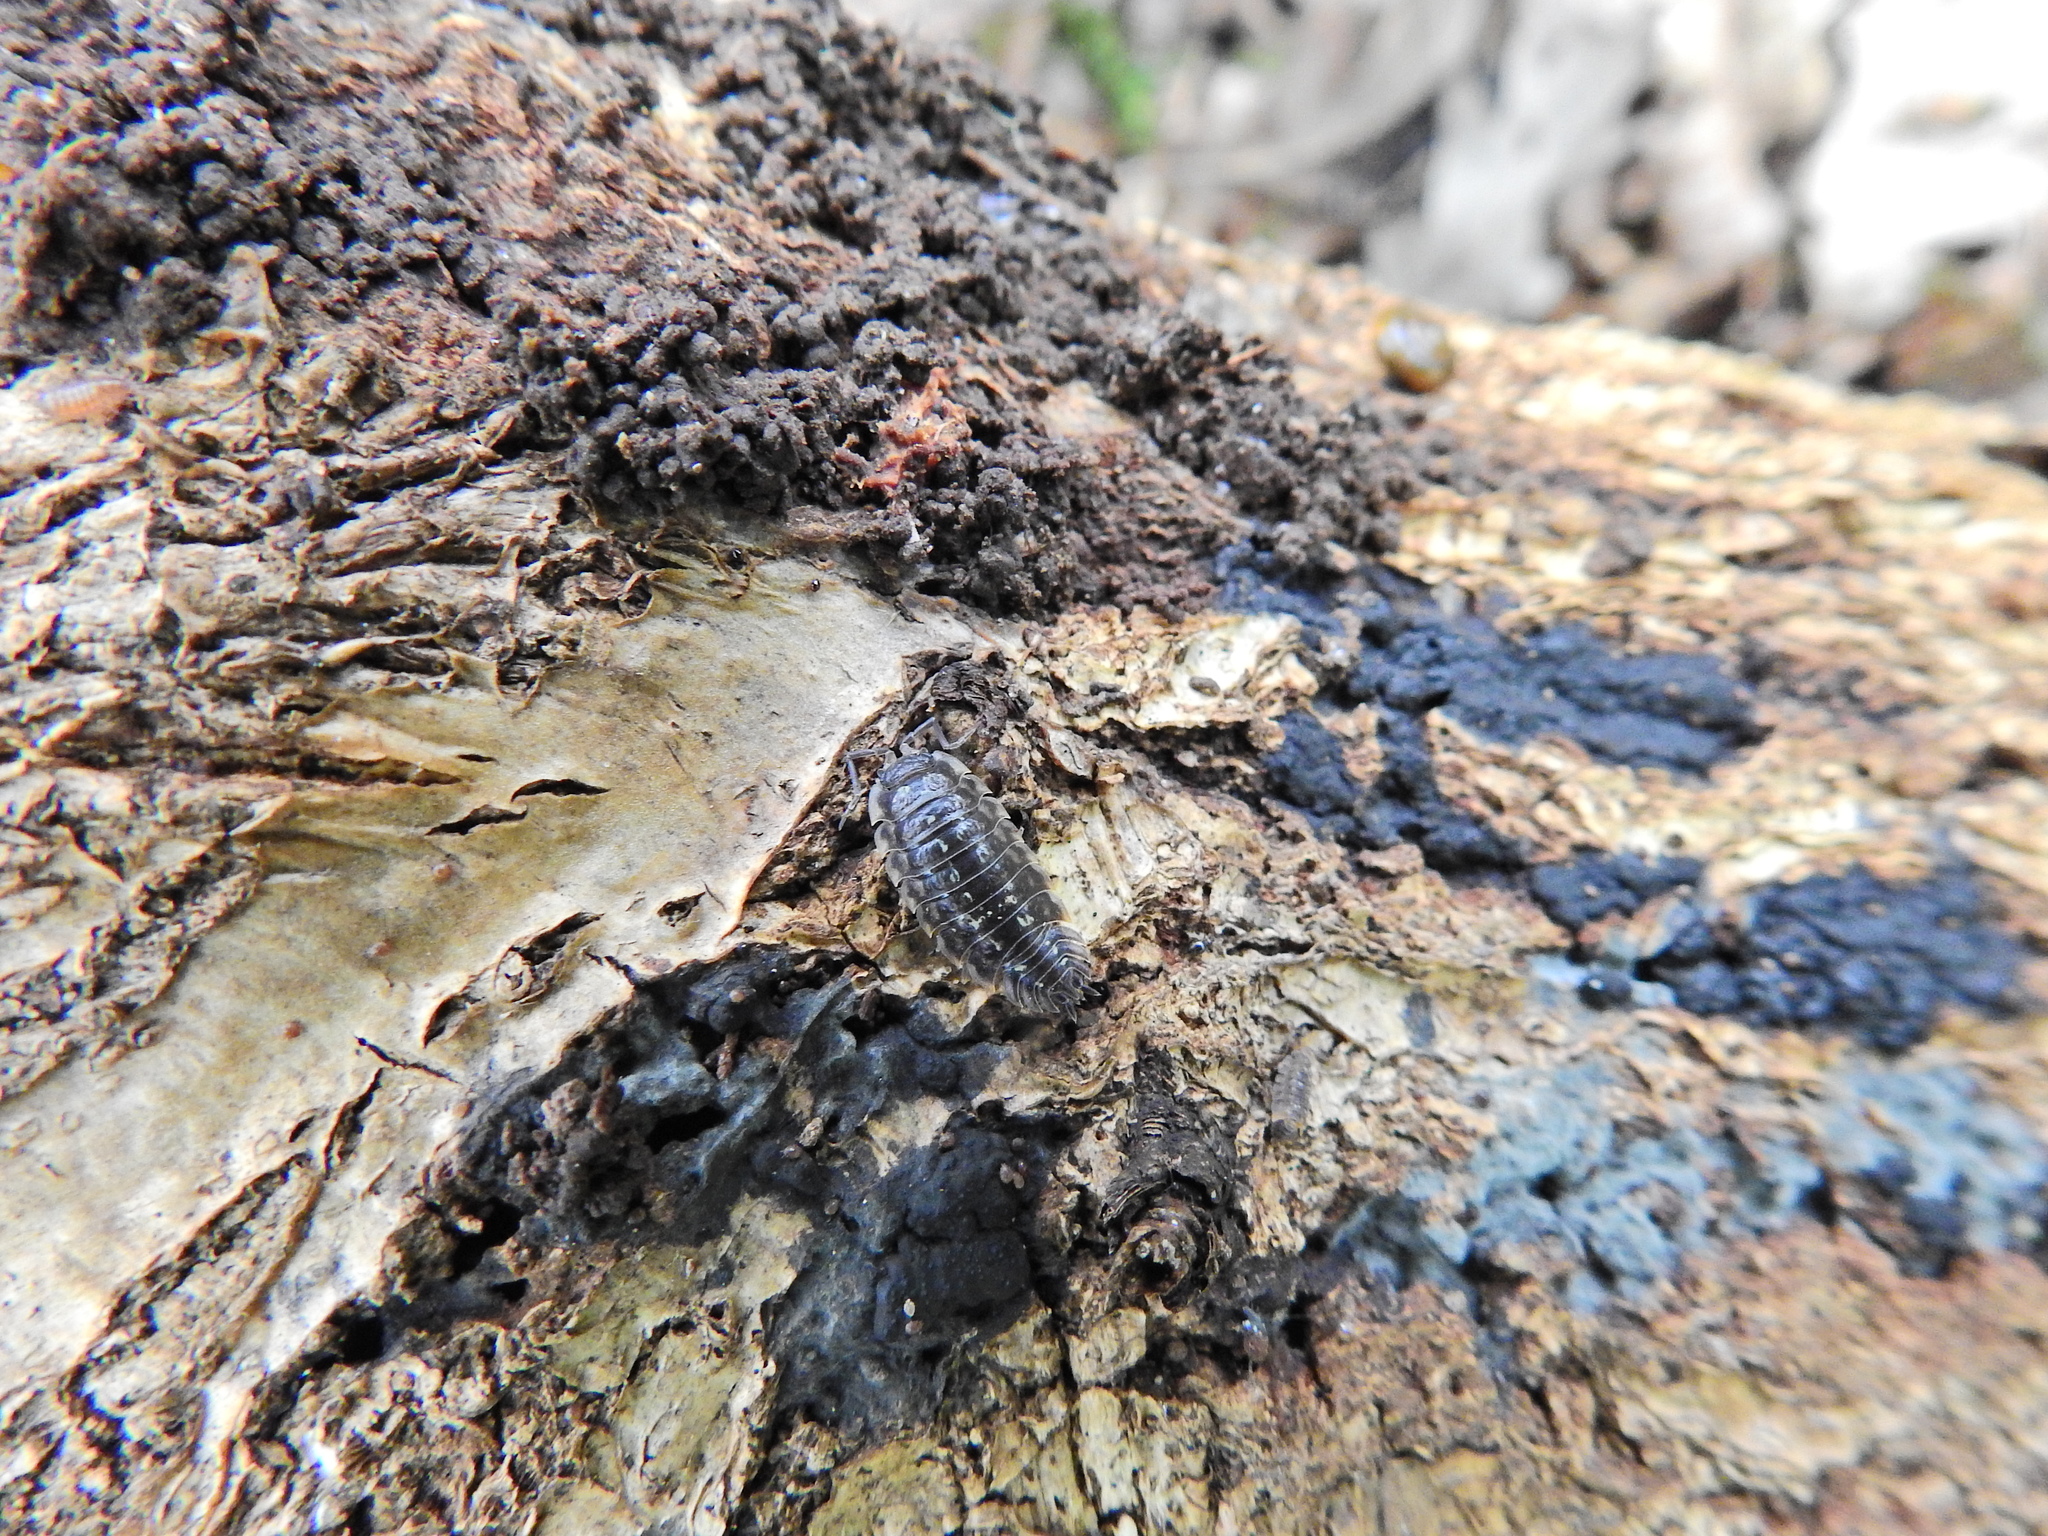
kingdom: Animalia
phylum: Arthropoda
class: Malacostraca
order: Isopoda
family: Oniscidae
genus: Oniscus
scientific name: Oniscus asellus
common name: Common shiny woodlouse
